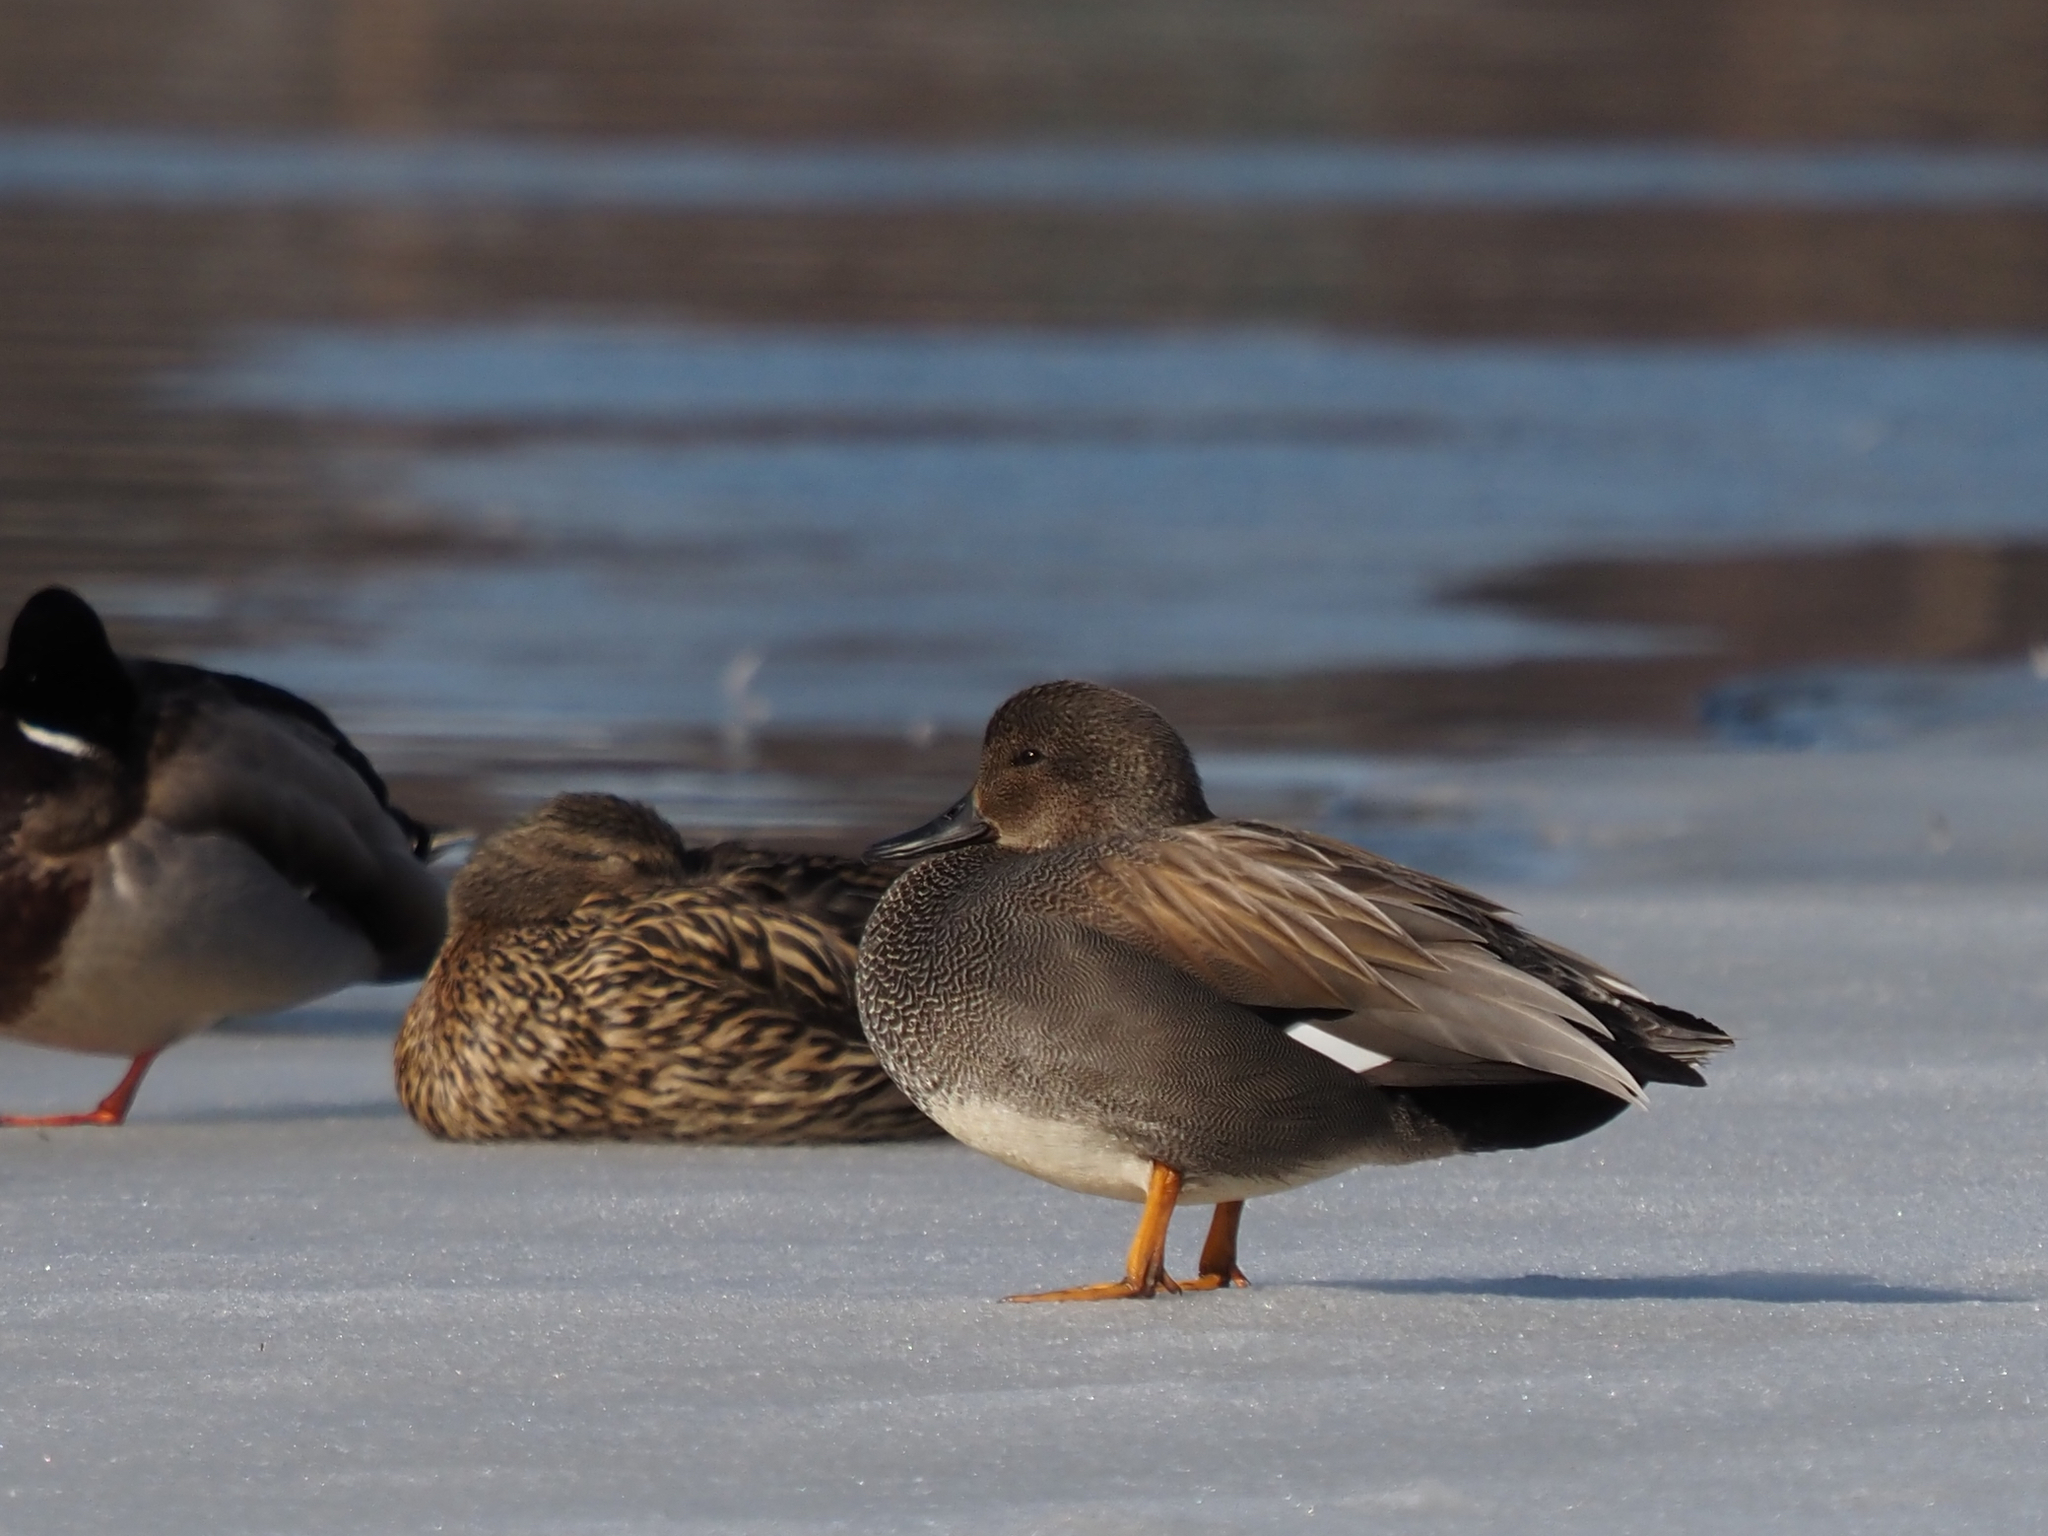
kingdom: Animalia
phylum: Chordata
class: Aves
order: Anseriformes
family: Anatidae
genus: Mareca
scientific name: Mareca strepera
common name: Gadwall
